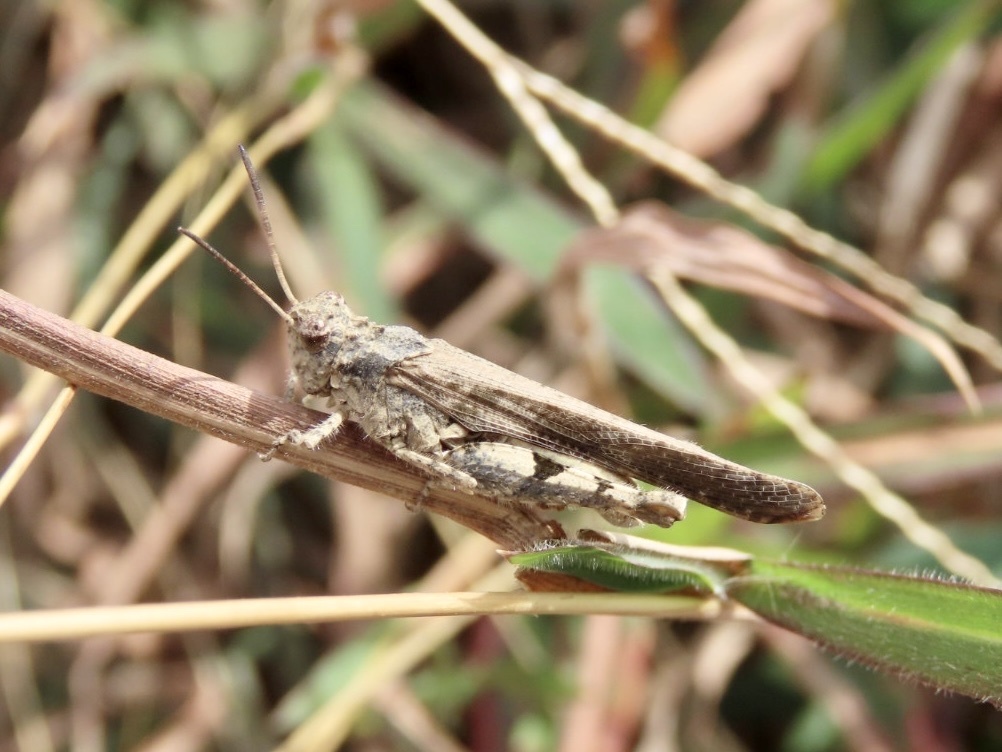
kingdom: Animalia
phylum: Arthropoda
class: Insecta
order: Orthoptera
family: Acrididae
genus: Trilophidia
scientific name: Trilophidia annulata
